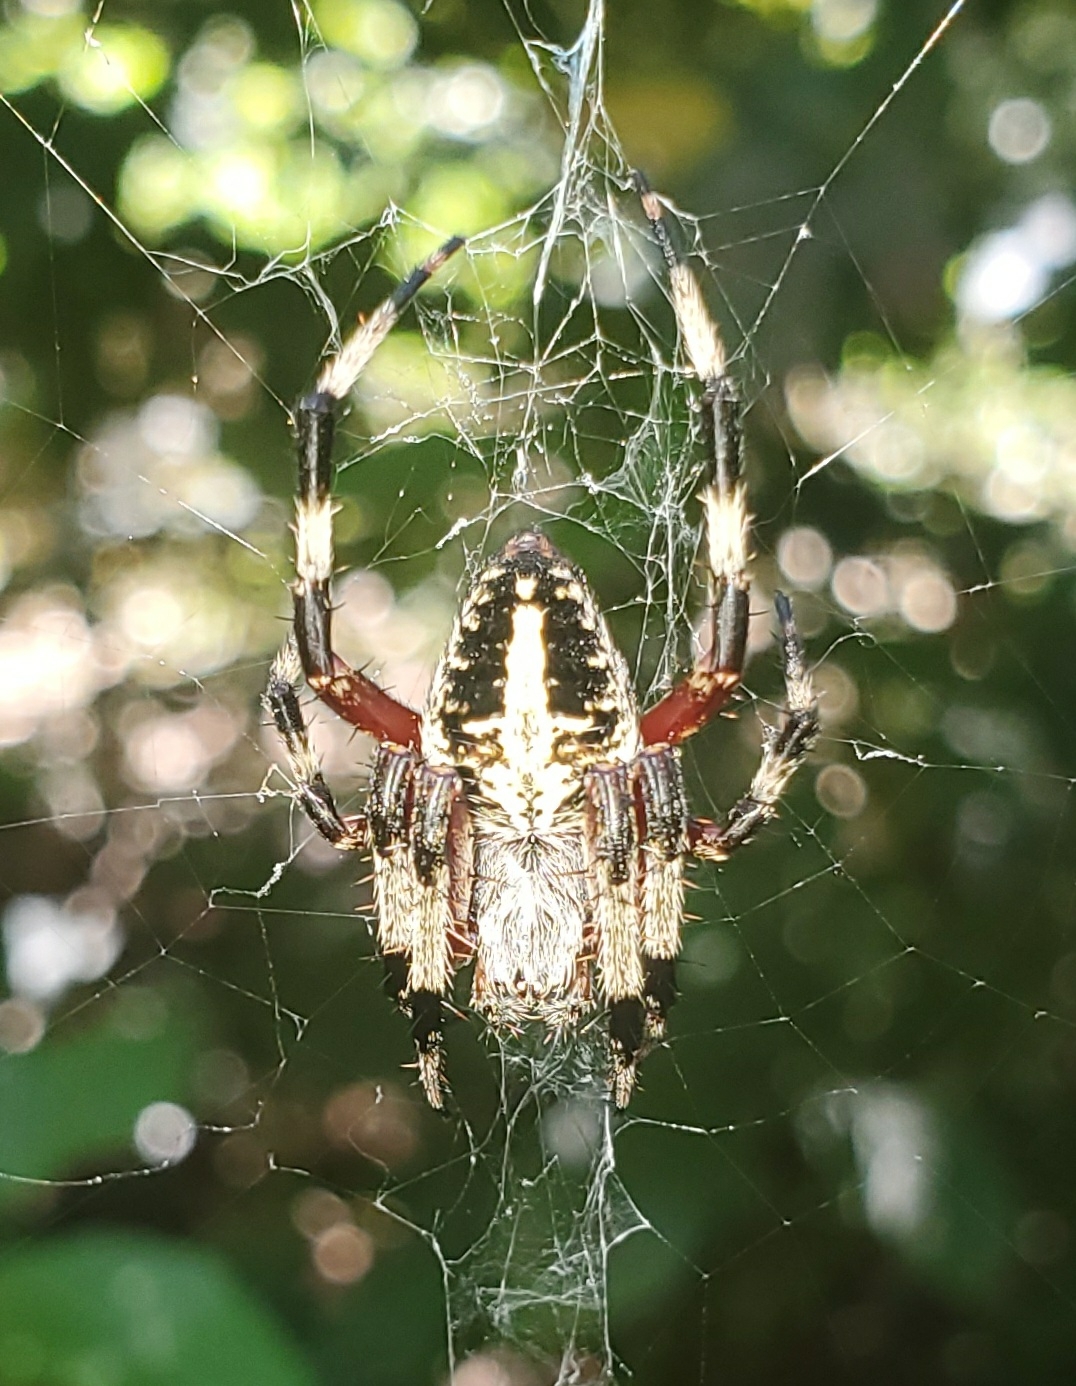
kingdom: Animalia
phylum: Arthropoda
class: Arachnida
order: Araneae
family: Araneidae
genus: Neoscona
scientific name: Neoscona domiciliorum
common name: Red-femured spotted orbweaver
